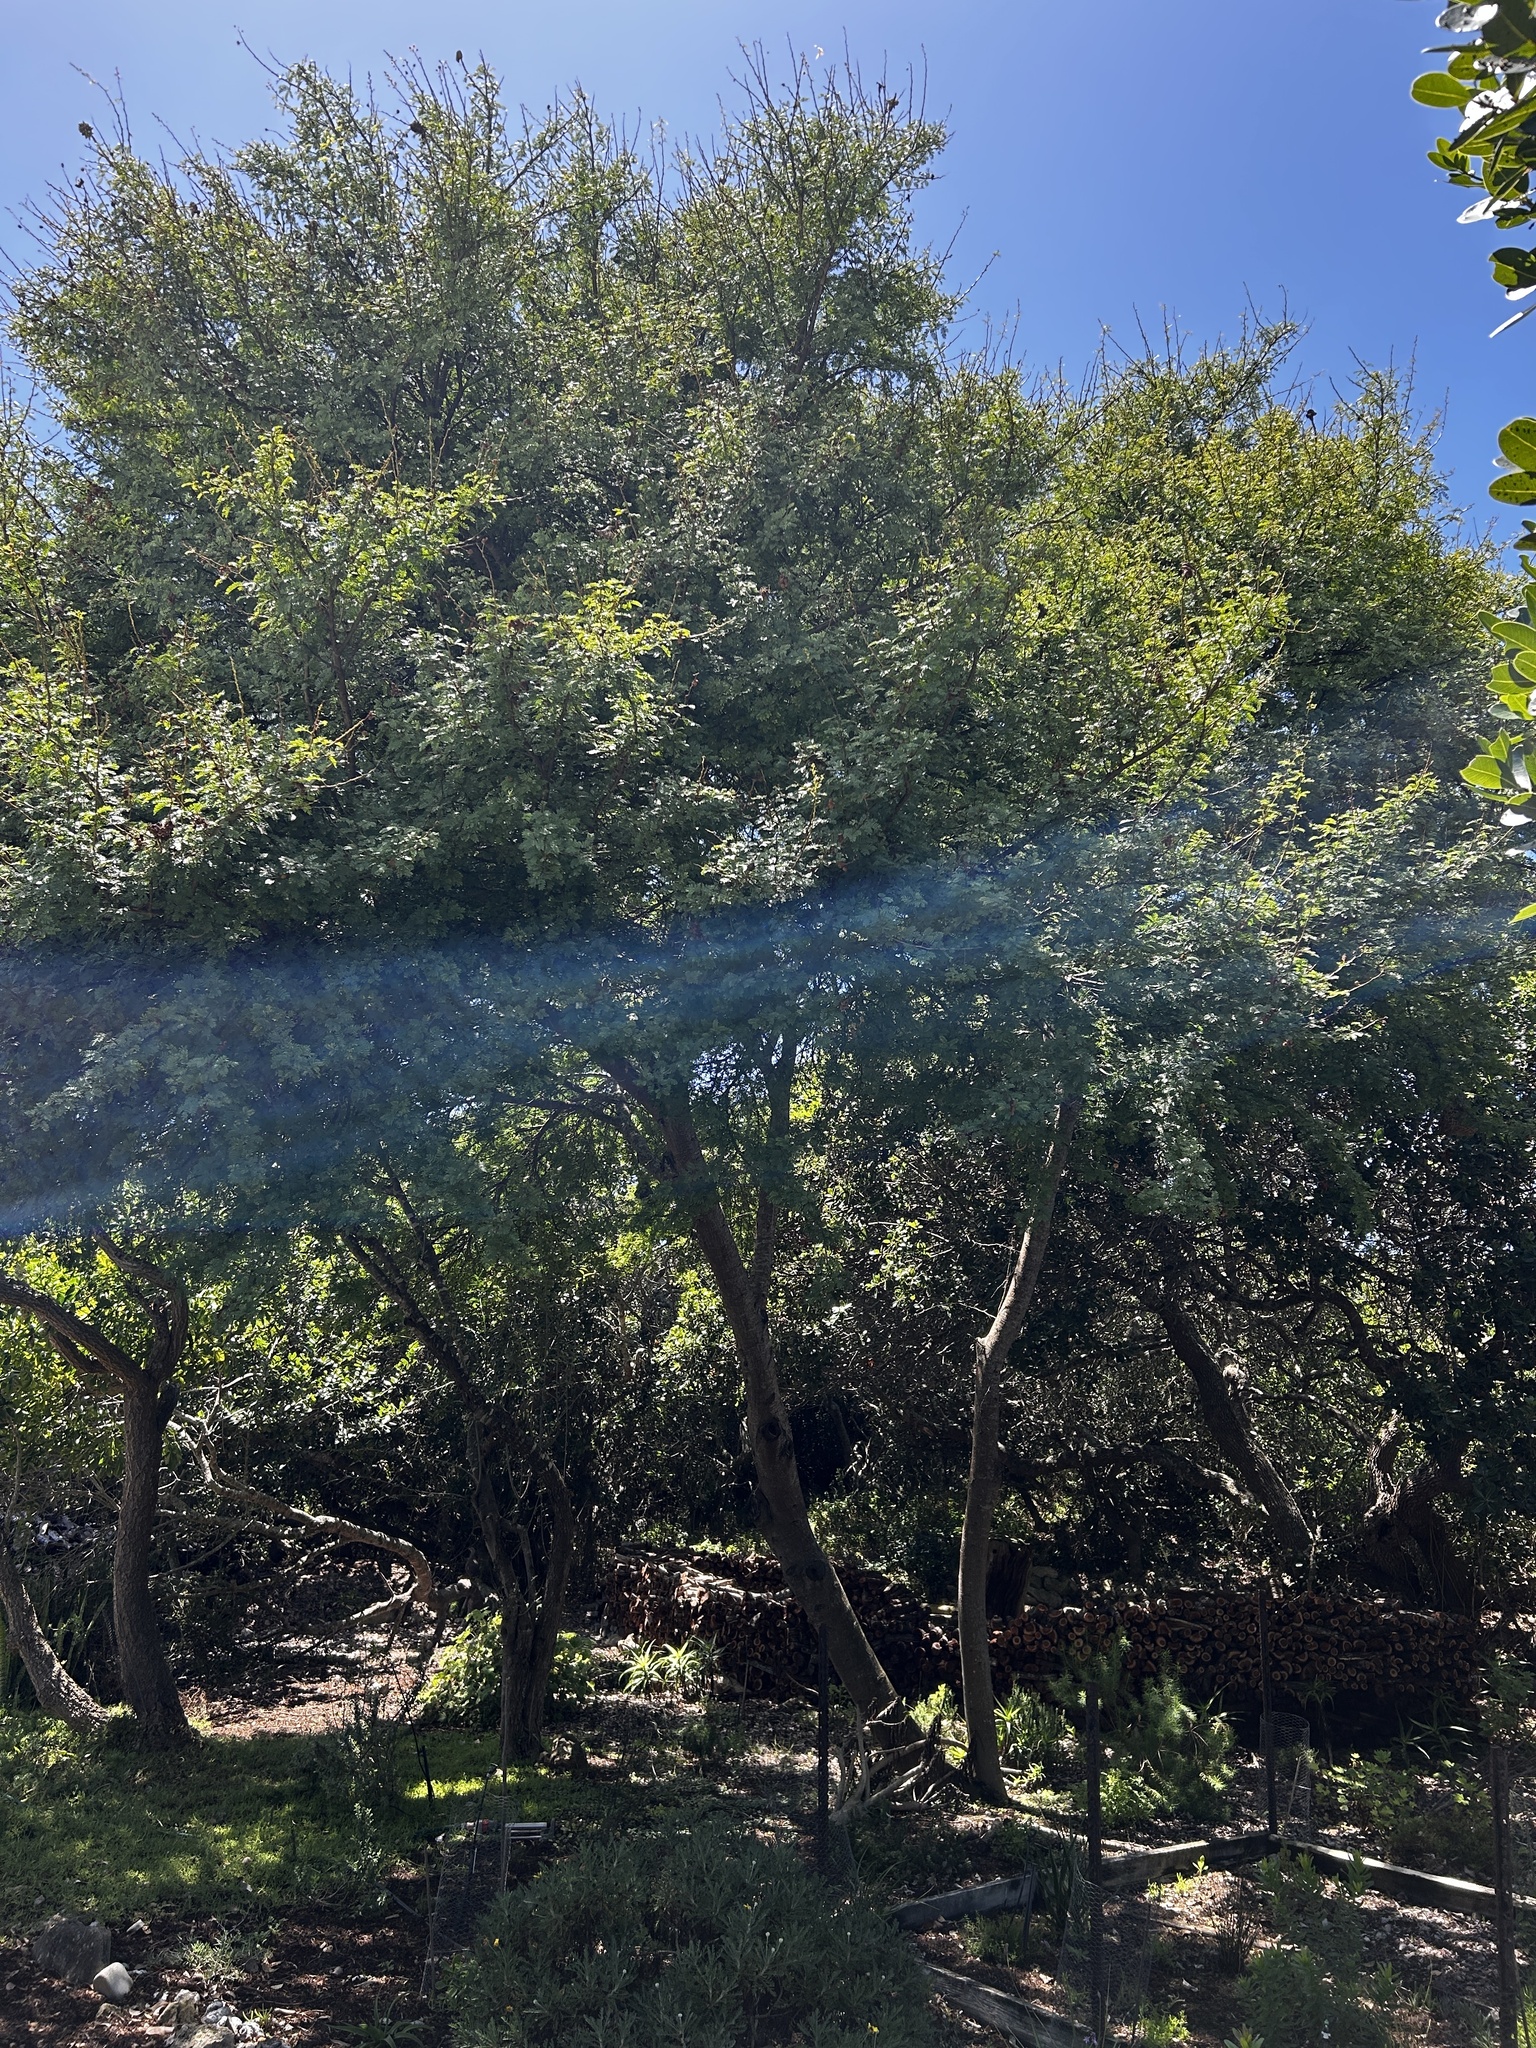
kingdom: Plantae
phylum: Tracheophyta
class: Magnoliopsida
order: Fabales
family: Fabaceae
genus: Vachellia
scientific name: Vachellia karroo
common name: Sweet thorn
